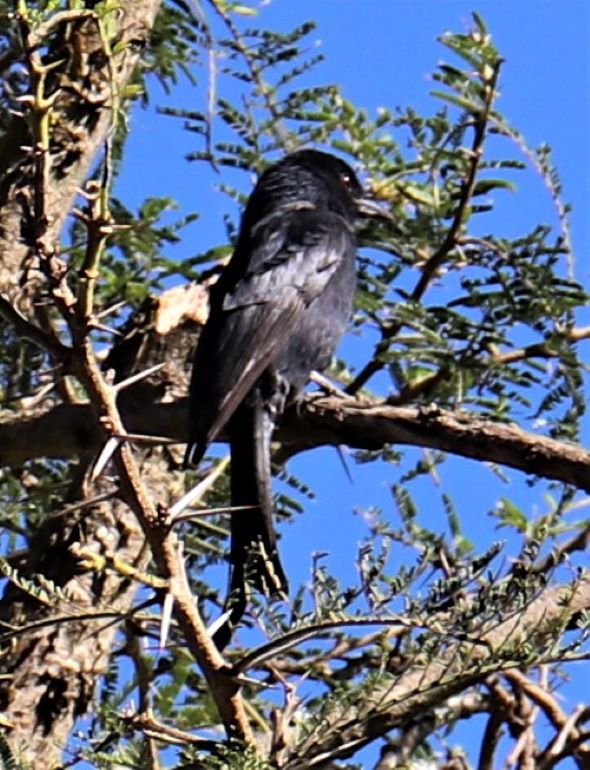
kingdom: Animalia
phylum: Chordata
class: Aves
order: Passeriformes
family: Dicruridae
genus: Dicrurus
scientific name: Dicrurus adsimilis
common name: Fork-tailed drongo
